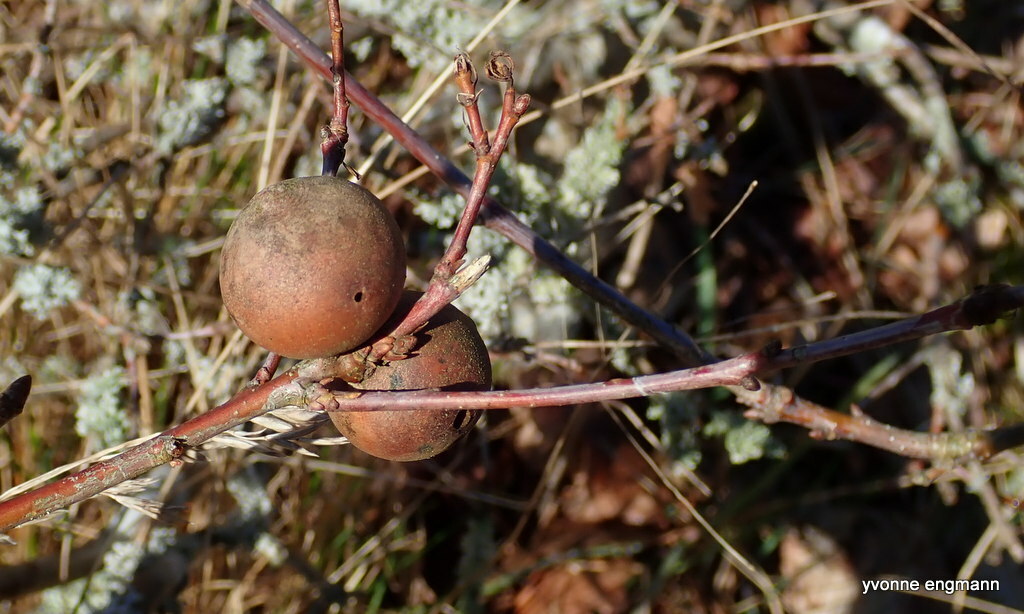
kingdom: Animalia
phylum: Arthropoda
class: Insecta
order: Hymenoptera
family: Cynipidae
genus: Andricus
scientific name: Andricus kollari
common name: Marble gall
